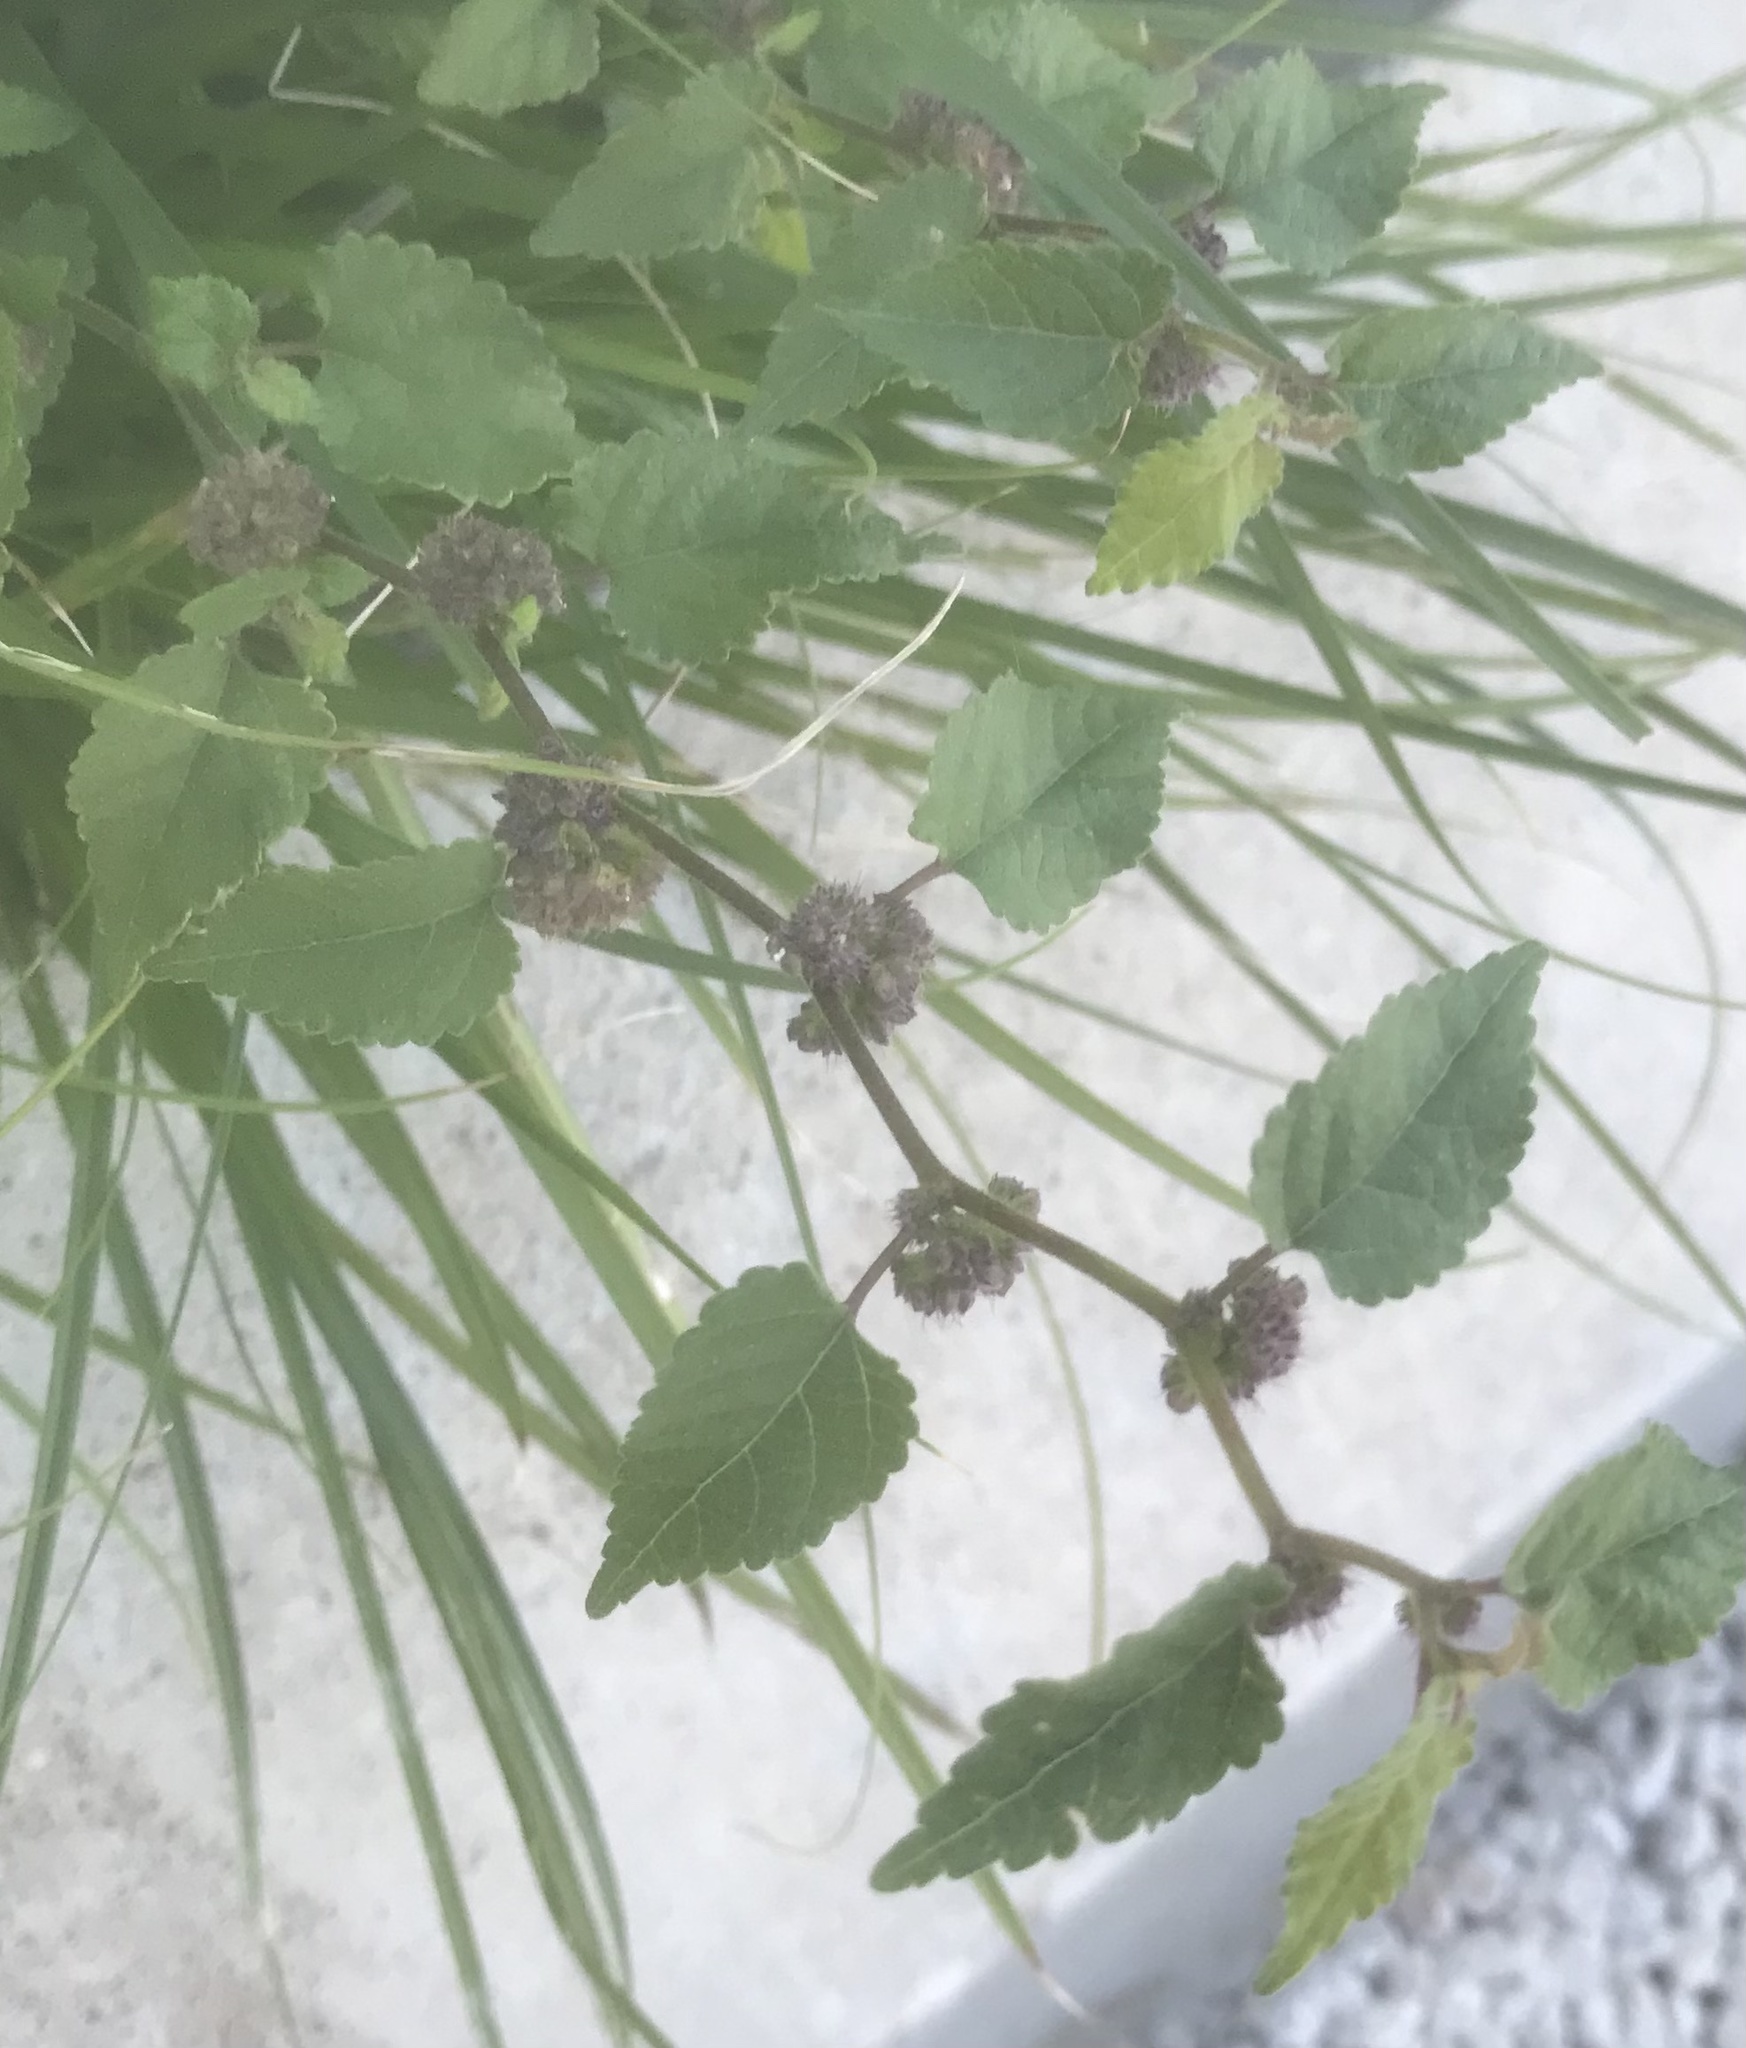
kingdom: Plantae
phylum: Tracheophyta
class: Magnoliopsida
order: Rosales
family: Moraceae
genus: Fatoua
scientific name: Fatoua villosa
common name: Hairy crabweed
